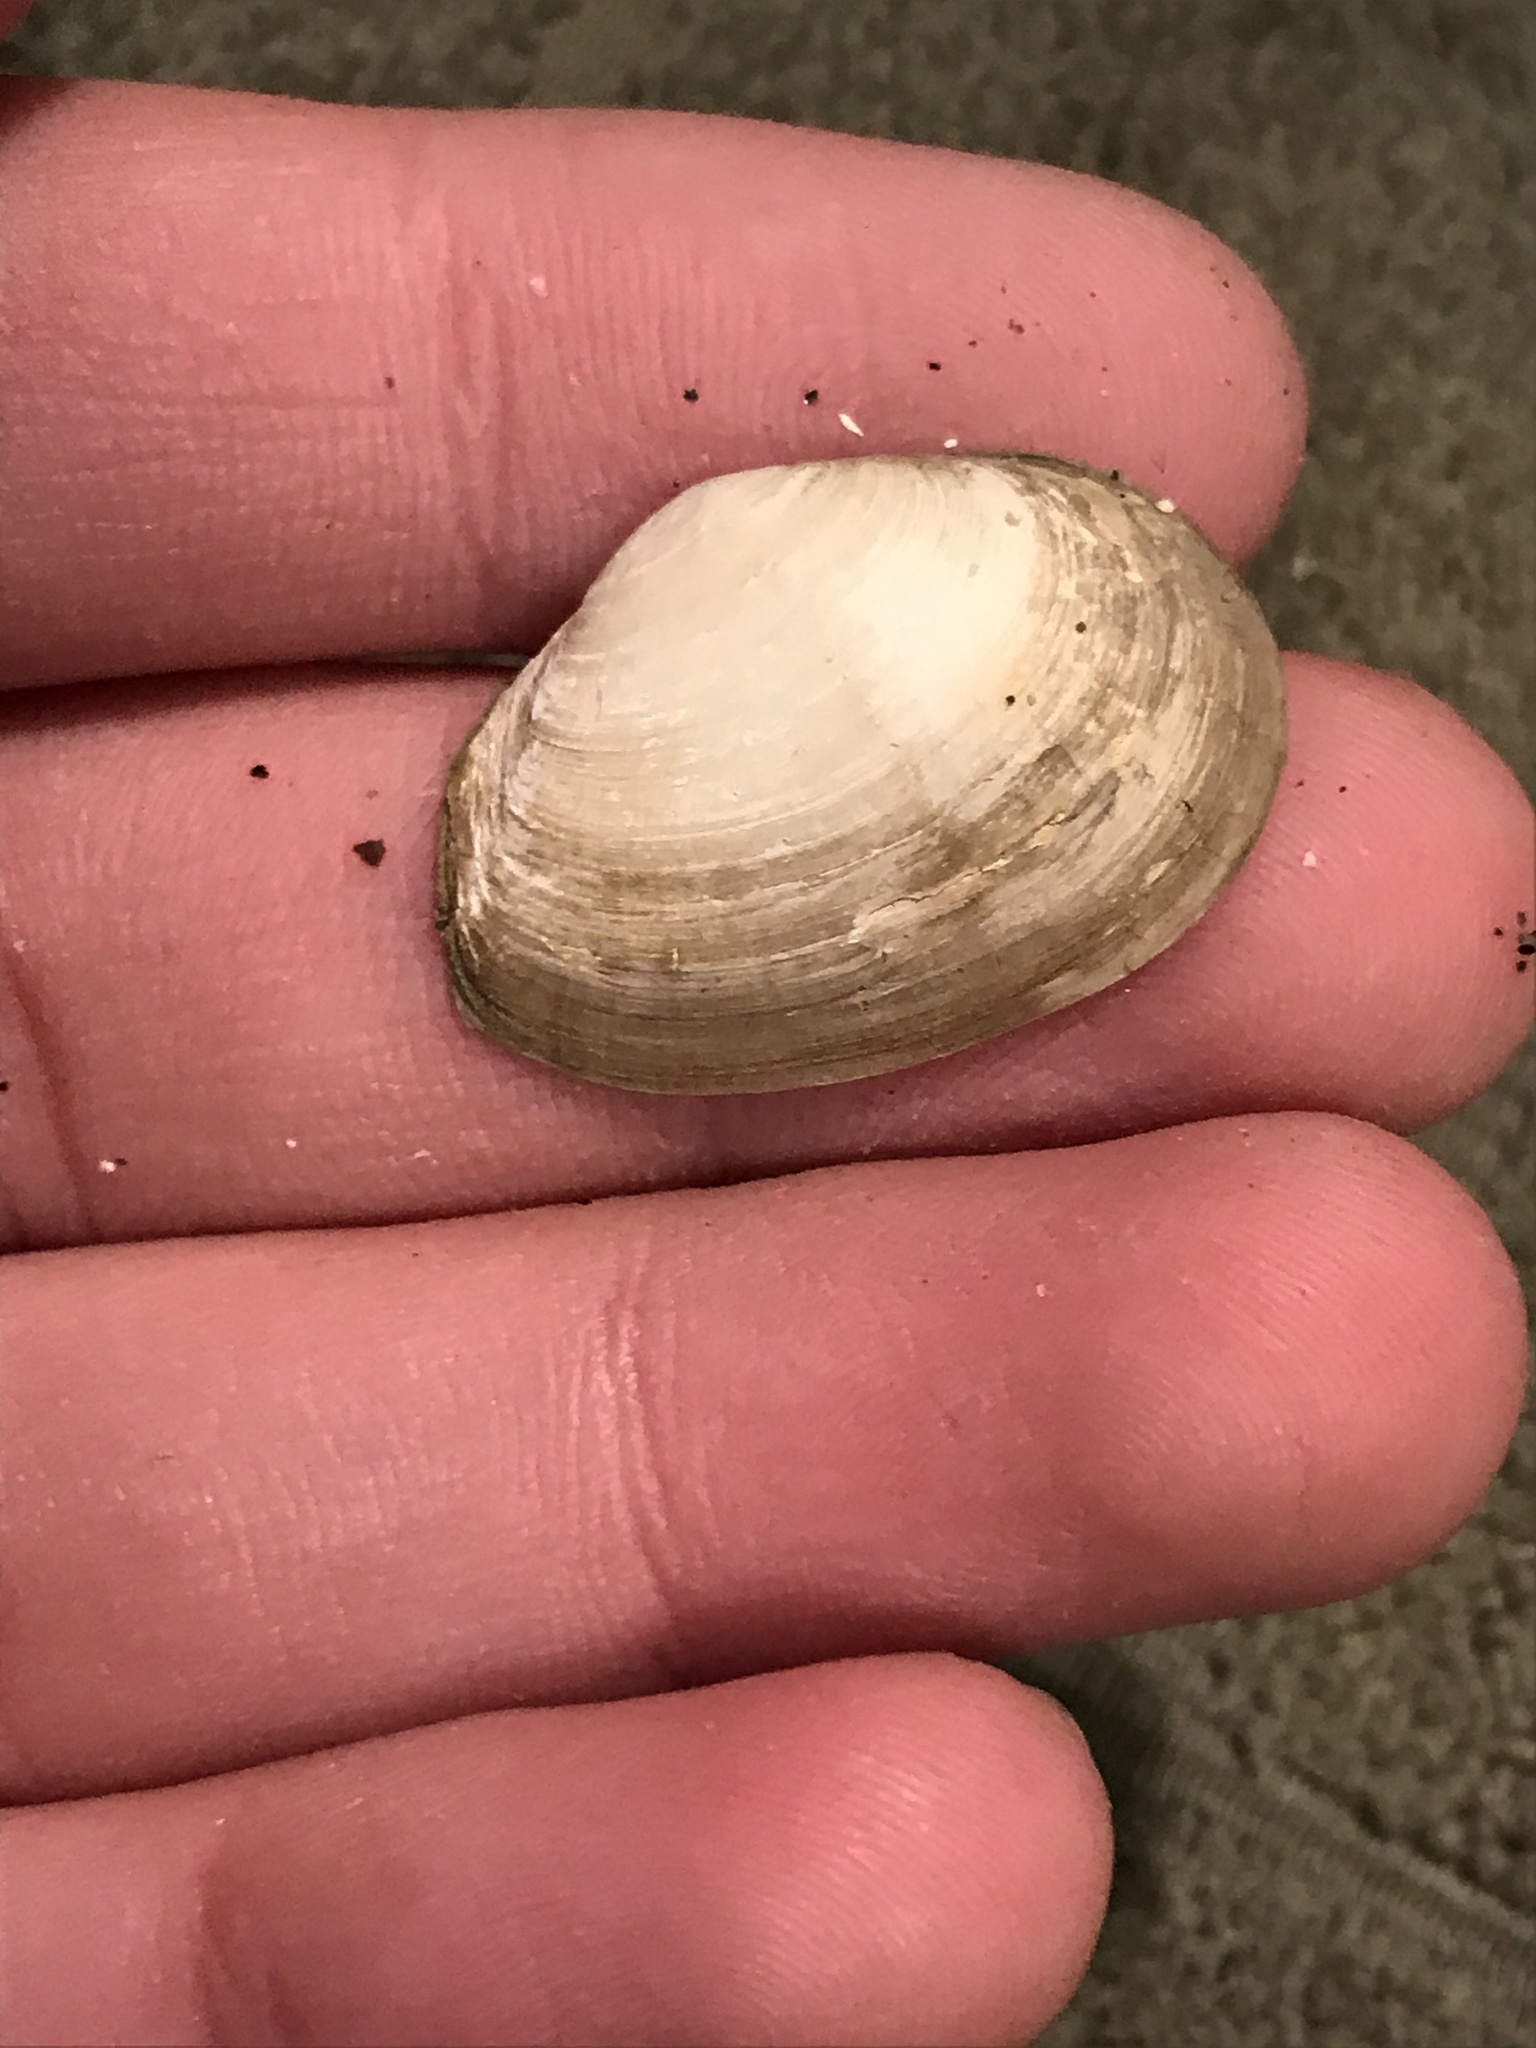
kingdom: Animalia
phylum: Mollusca
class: Bivalvia
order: Myida
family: Myidae
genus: Cryptomya
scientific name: Cryptomya californica
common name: California softshell clam
